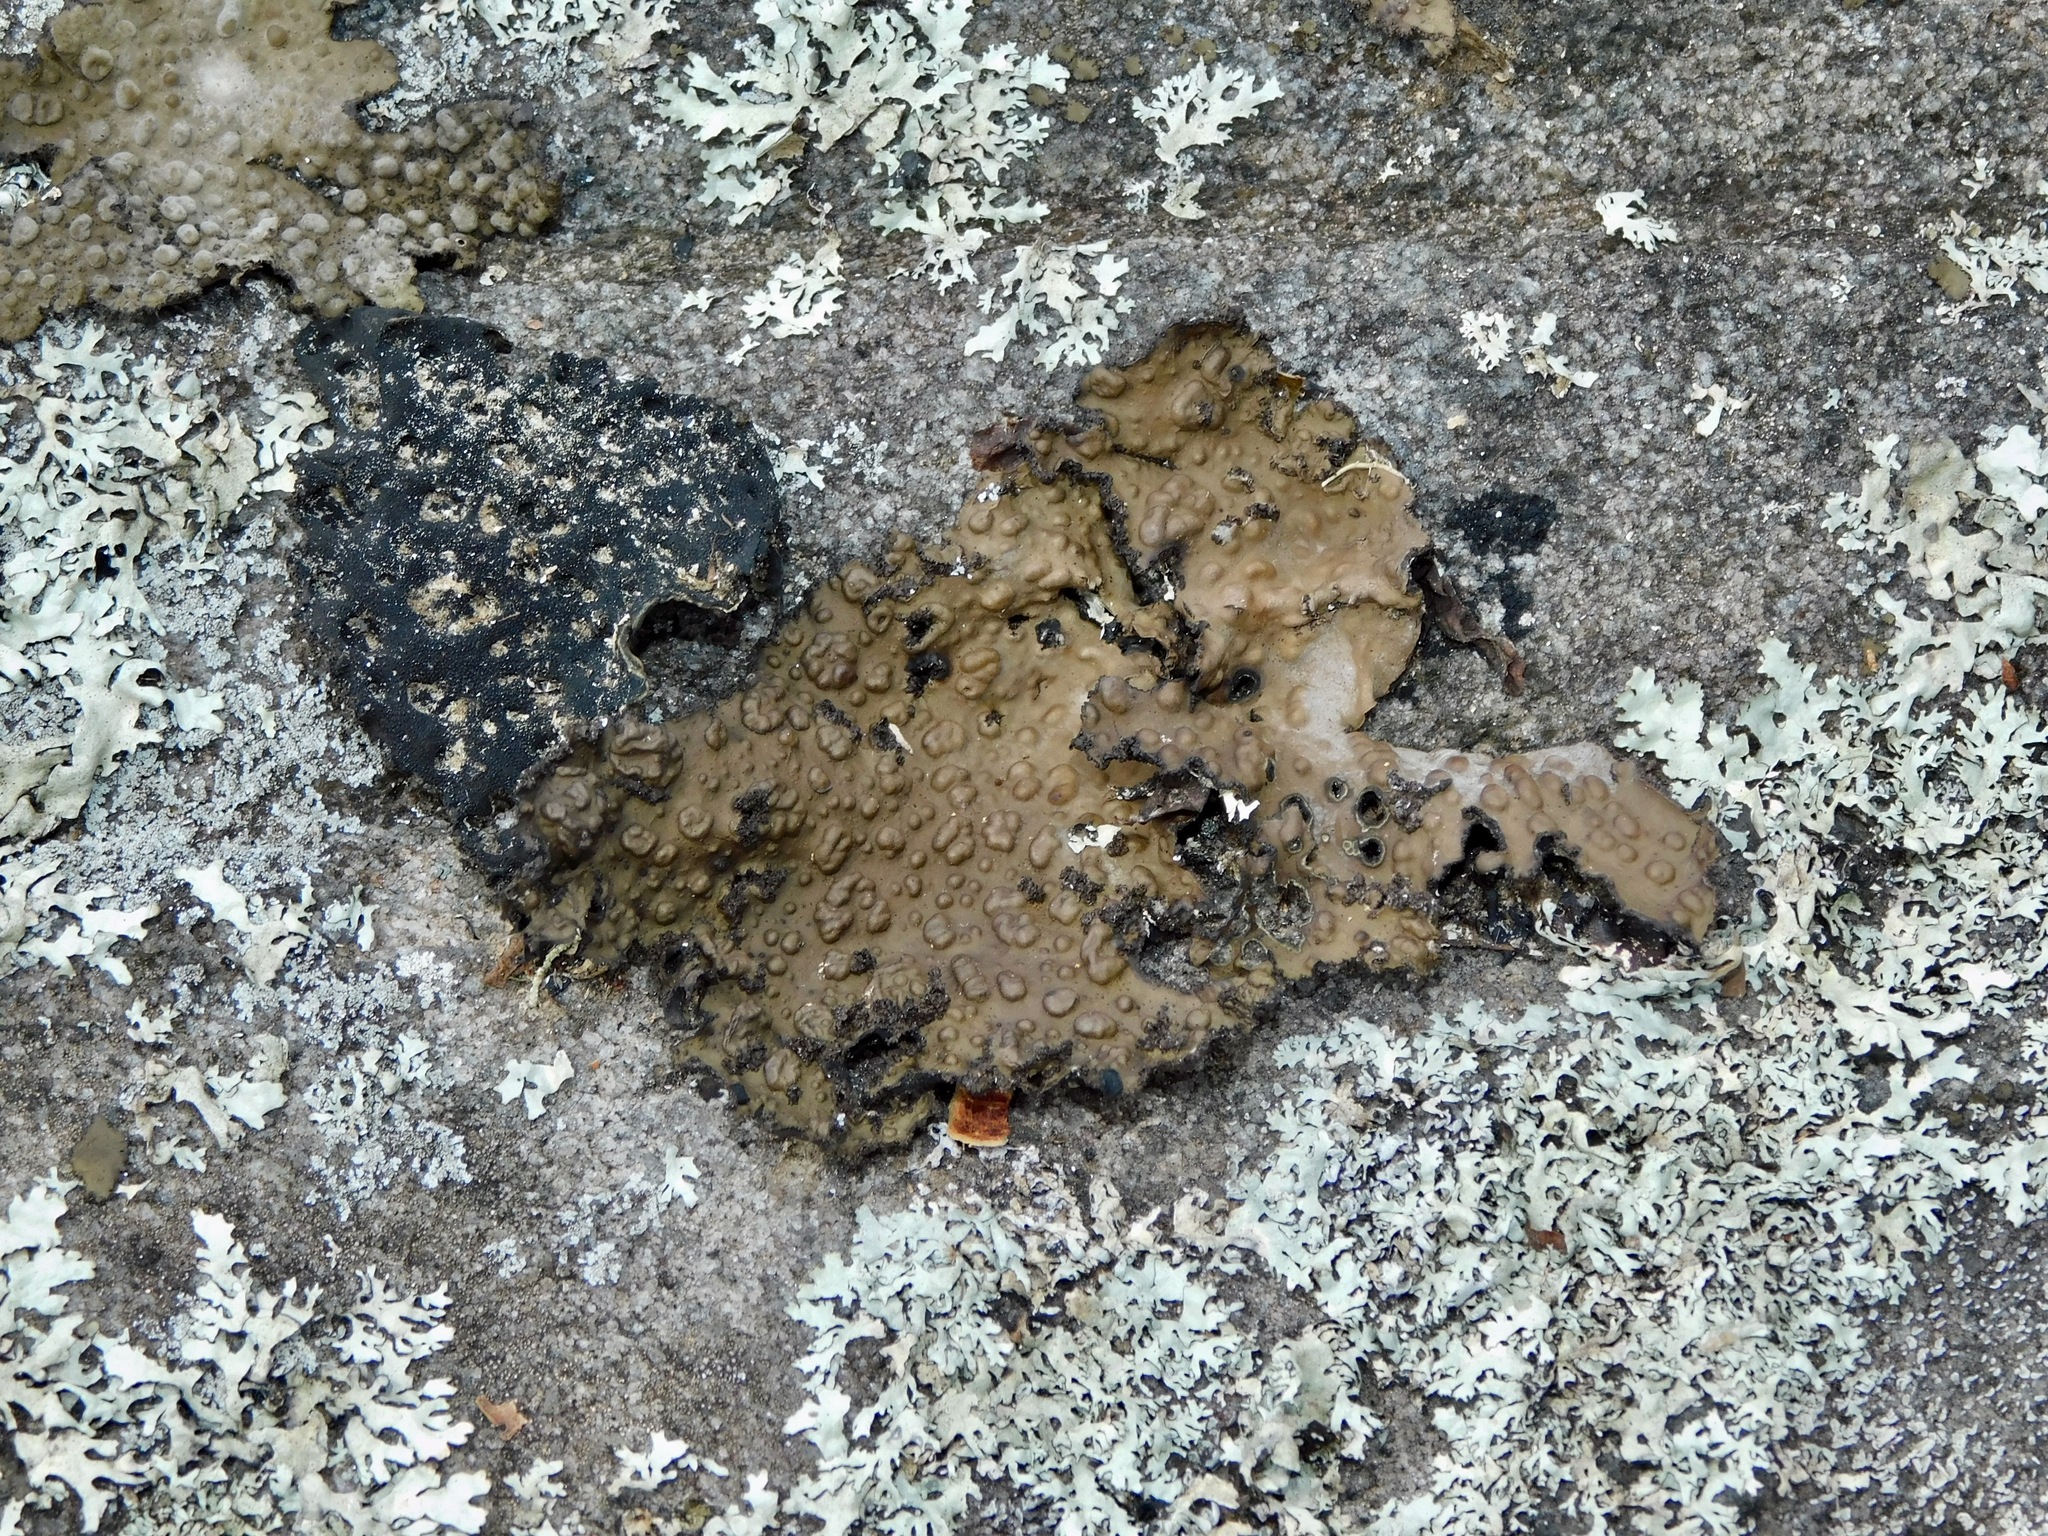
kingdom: Fungi
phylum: Ascomycota
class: Lecanoromycetes
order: Umbilicariales
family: Umbilicariaceae
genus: Lasallia
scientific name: Lasallia pensylvanica
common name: Blackened toadskin lichen
